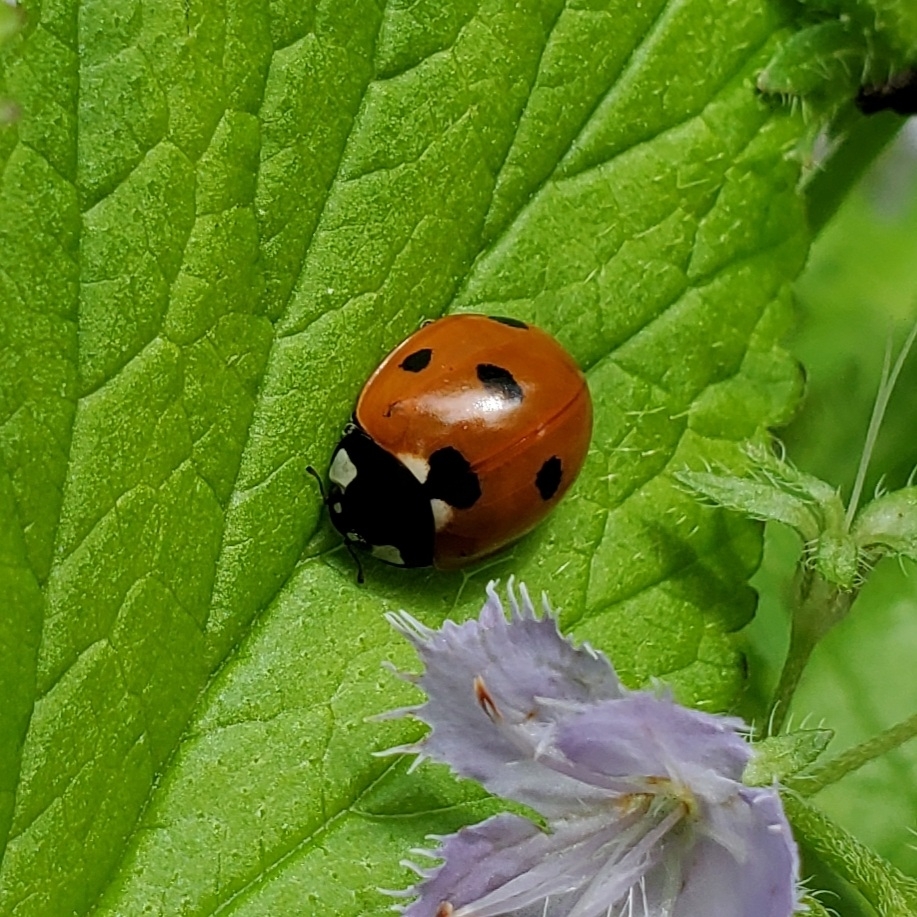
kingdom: Animalia
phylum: Arthropoda
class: Insecta
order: Coleoptera
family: Coccinellidae
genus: Coccinella
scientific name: Coccinella septempunctata
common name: Sevenspotted lady beetle
